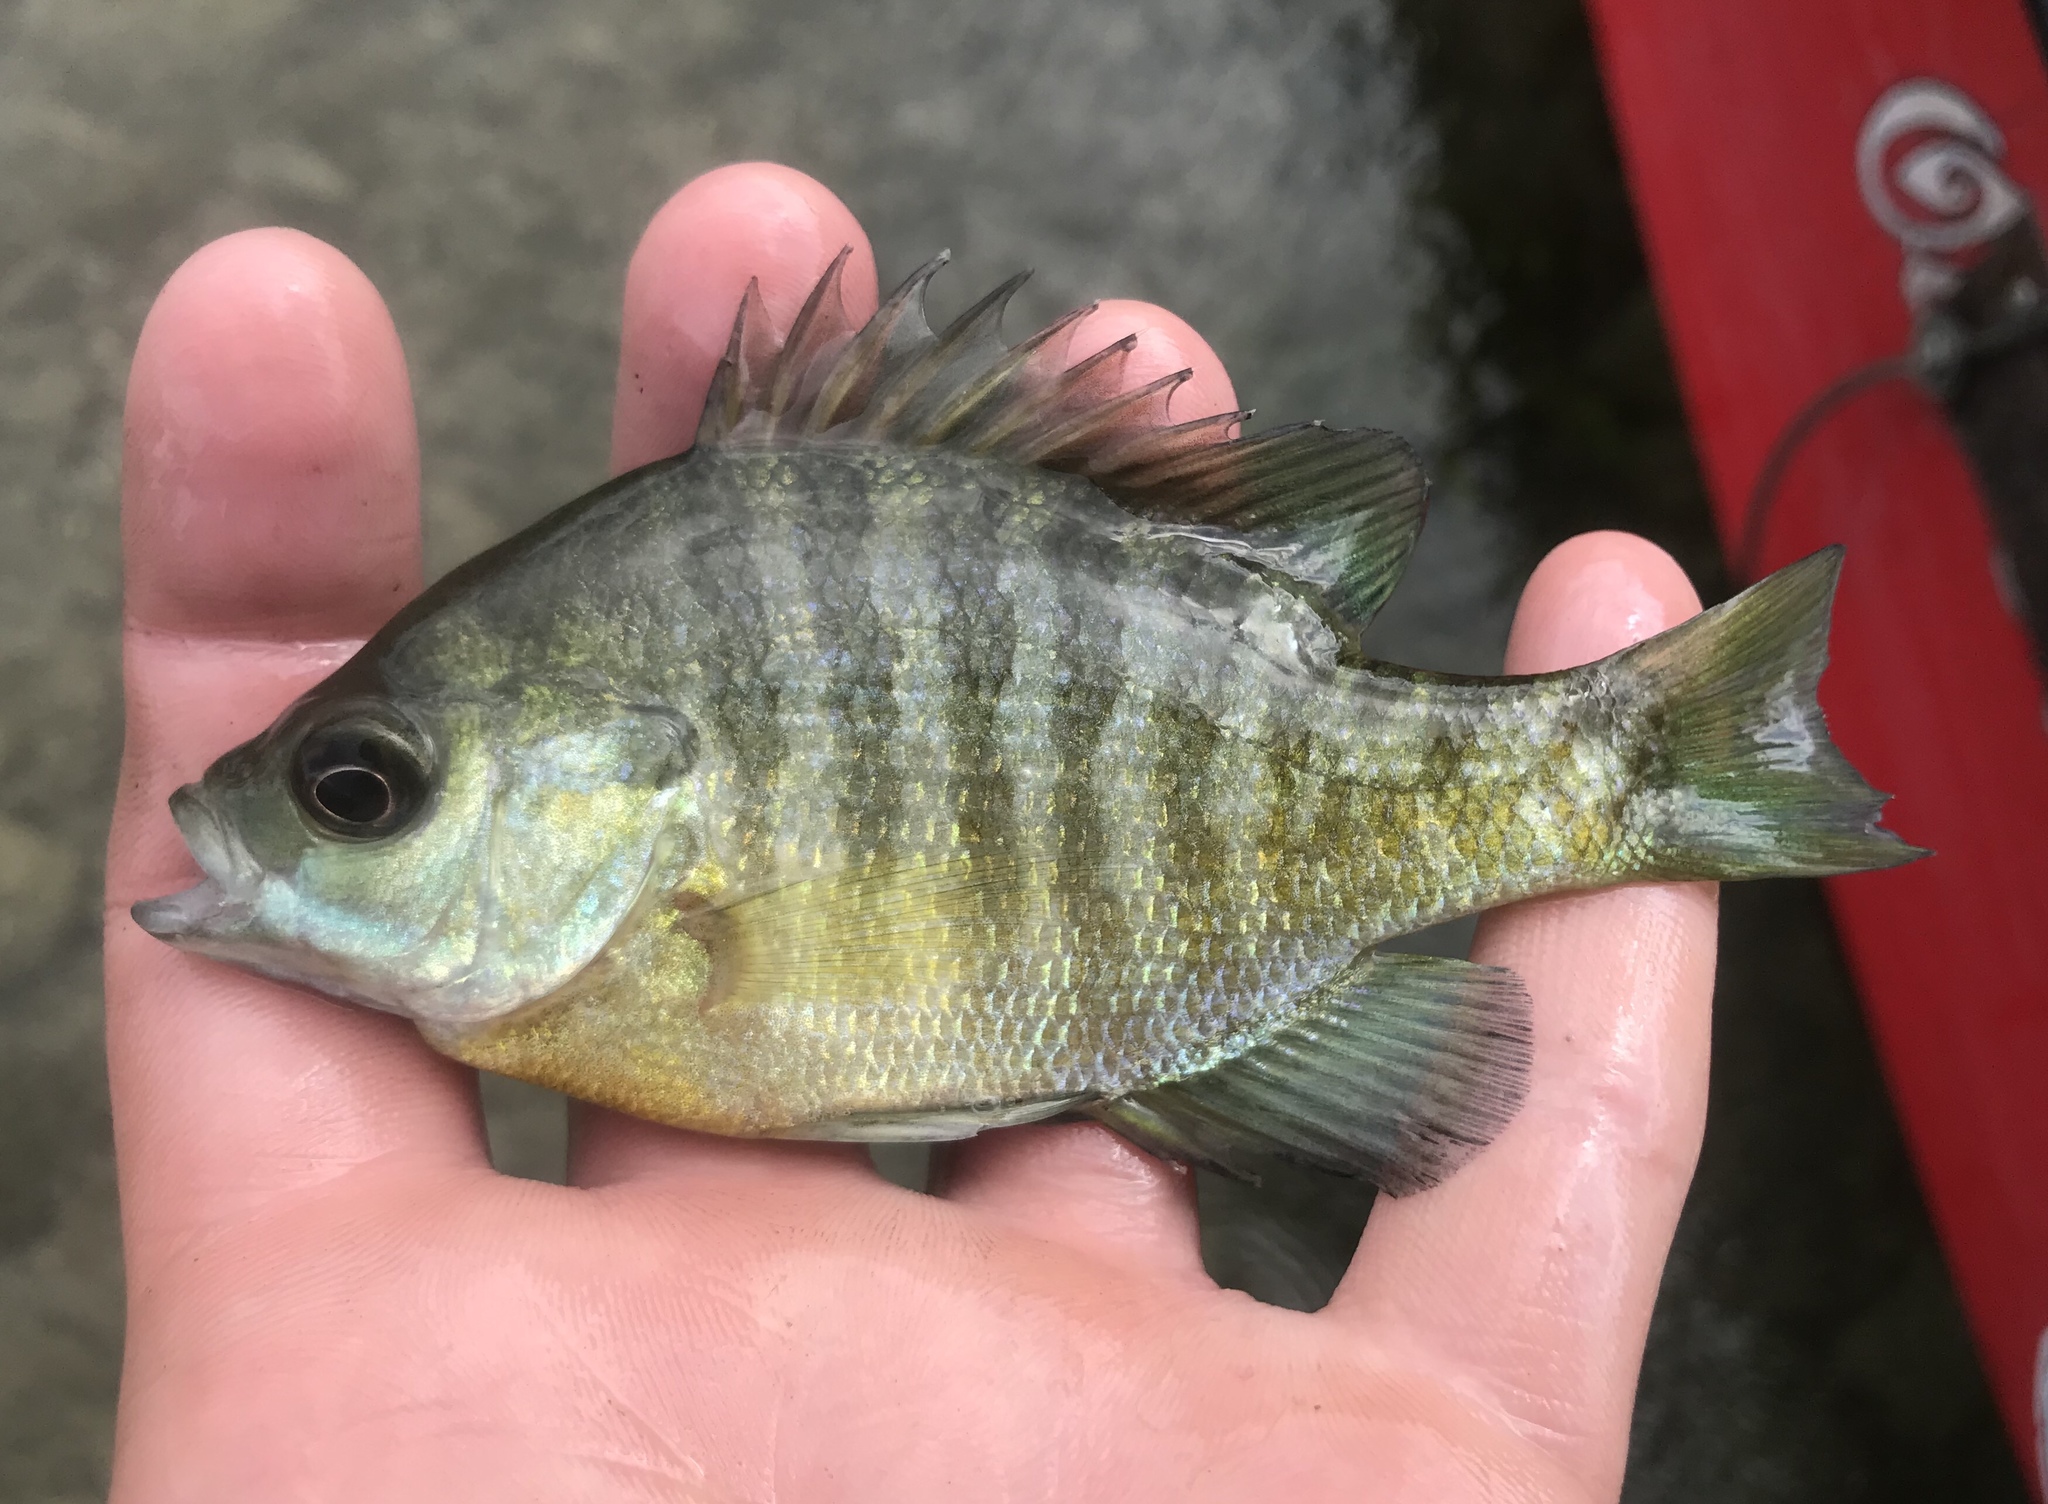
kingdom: Animalia
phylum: Chordata
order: Perciformes
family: Centrarchidae
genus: Lepomis
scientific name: Lepomis macrochirus
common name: Bluegill
